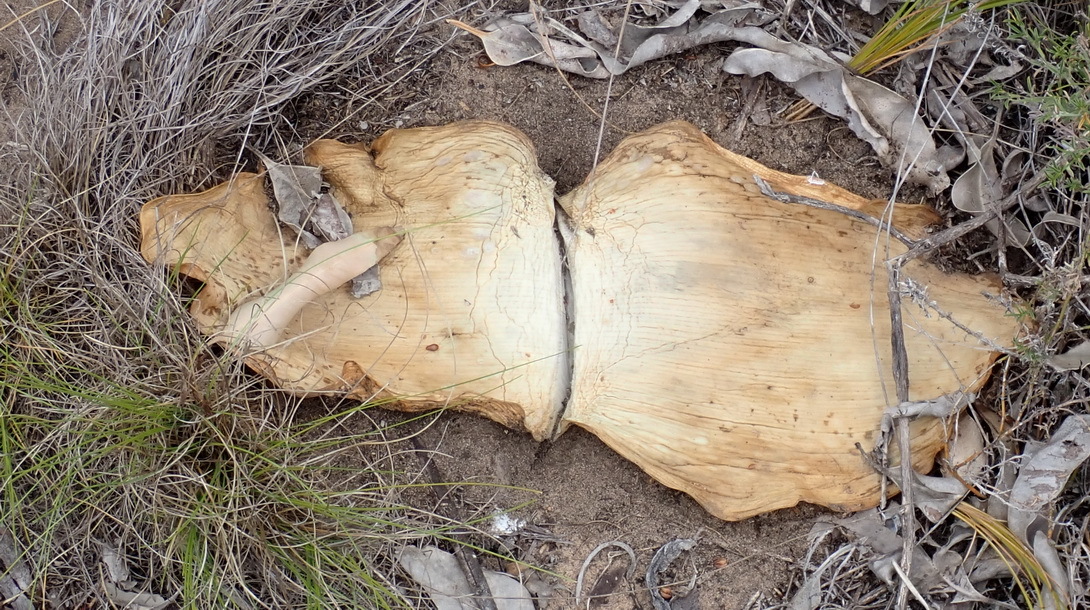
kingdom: Plantae
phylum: Tracheophyta
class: Liliopsida
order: Asparagales
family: Amaryllidaceae
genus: Haemanthus
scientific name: Haemanthus sanguineus
